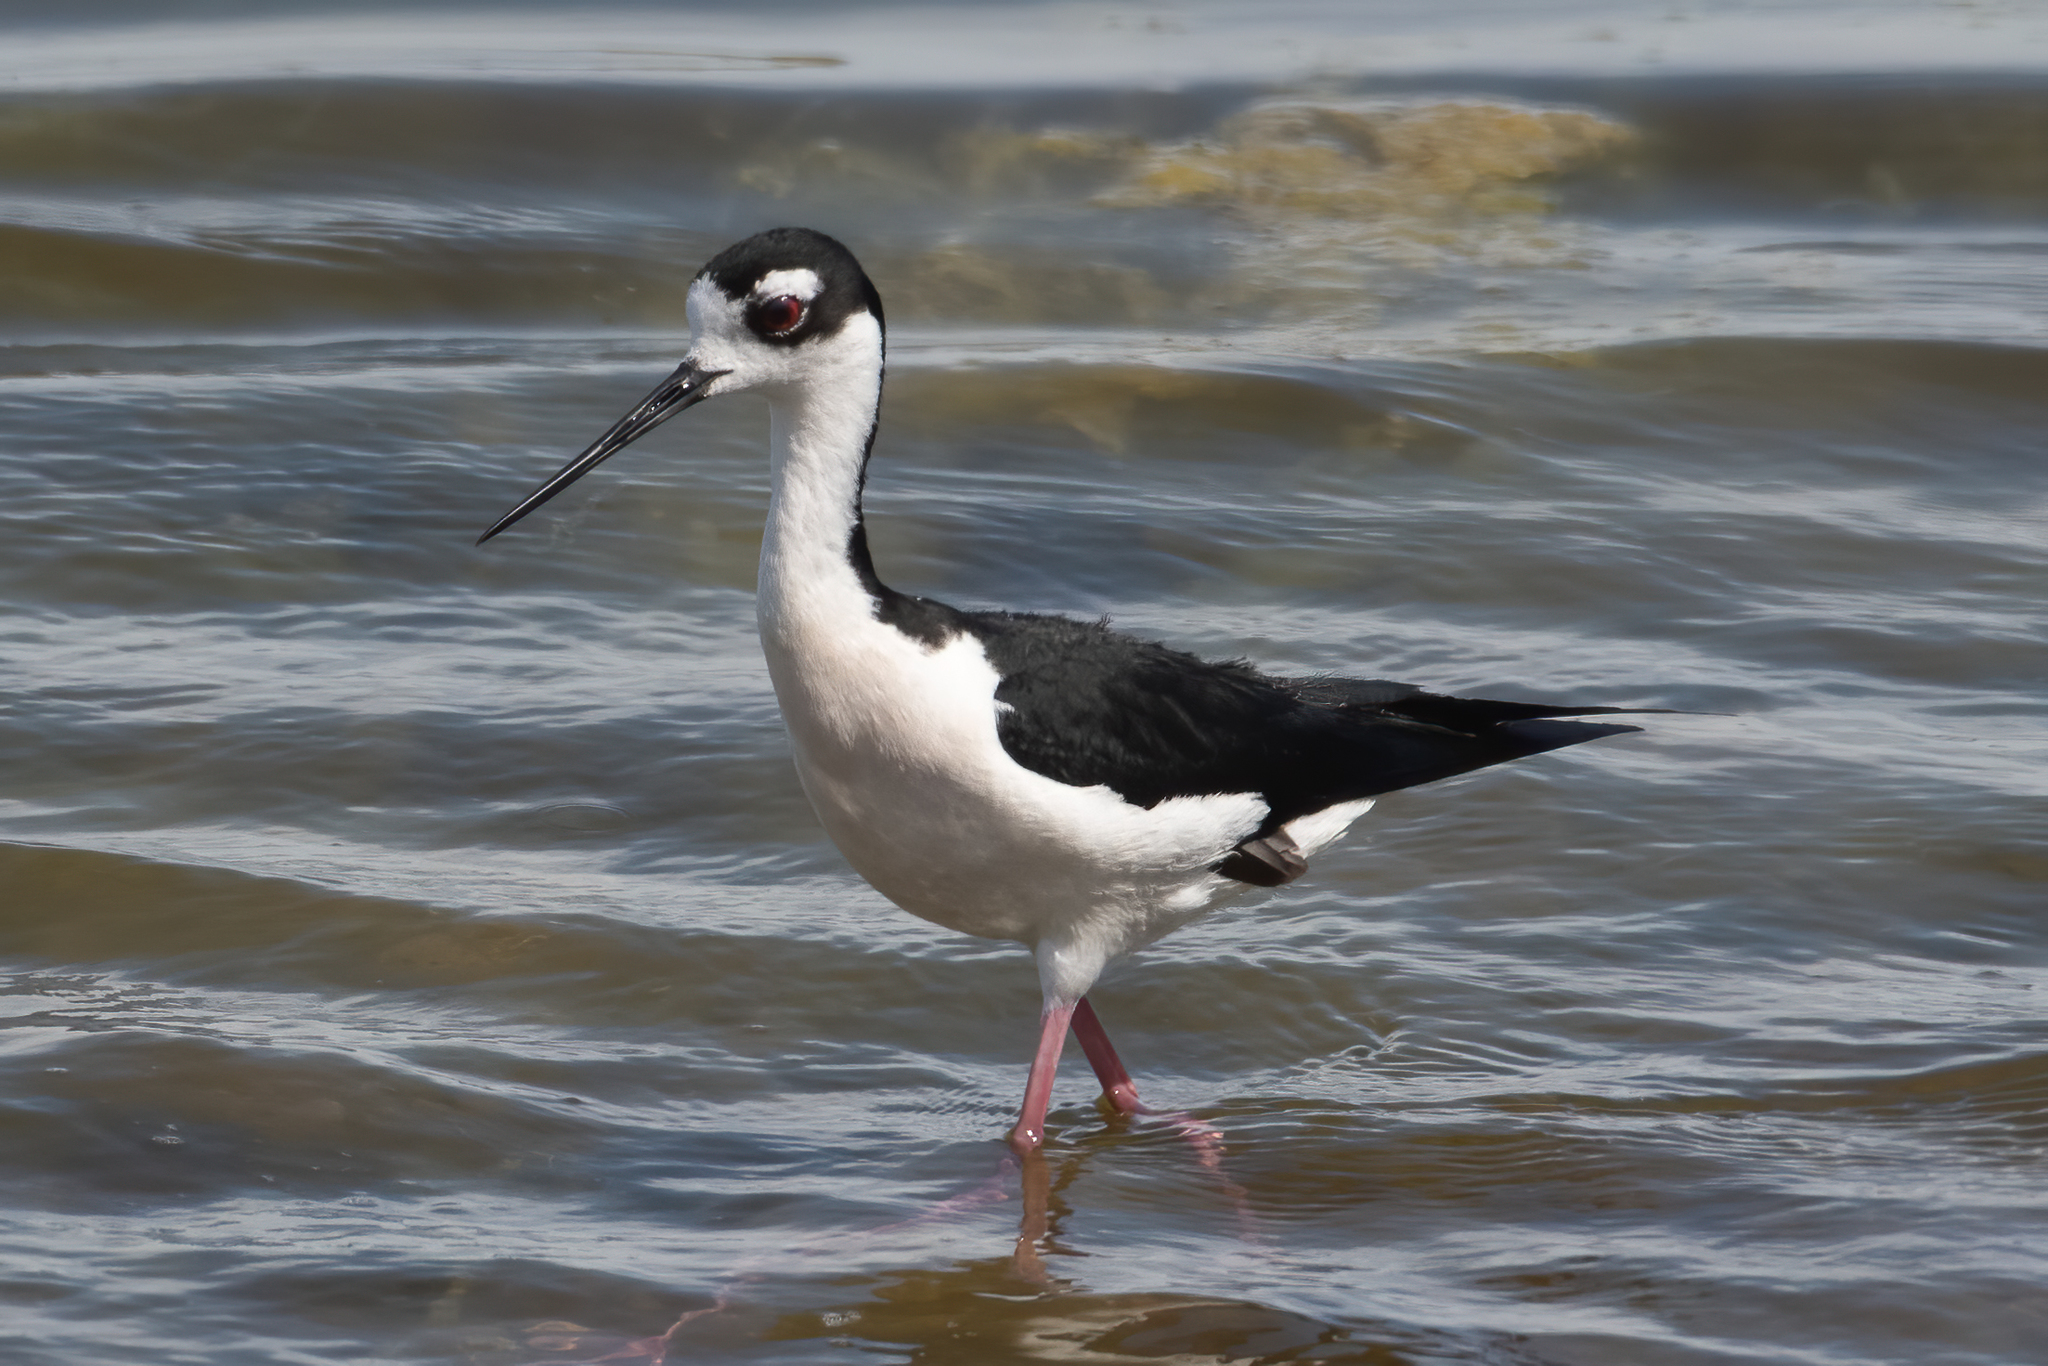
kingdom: Animalia
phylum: Chordata
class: Aves
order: Charadriiformes
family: Recurvirostridae
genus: Himantopus
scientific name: Himantopus mexicanus
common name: Black-necked stilt
